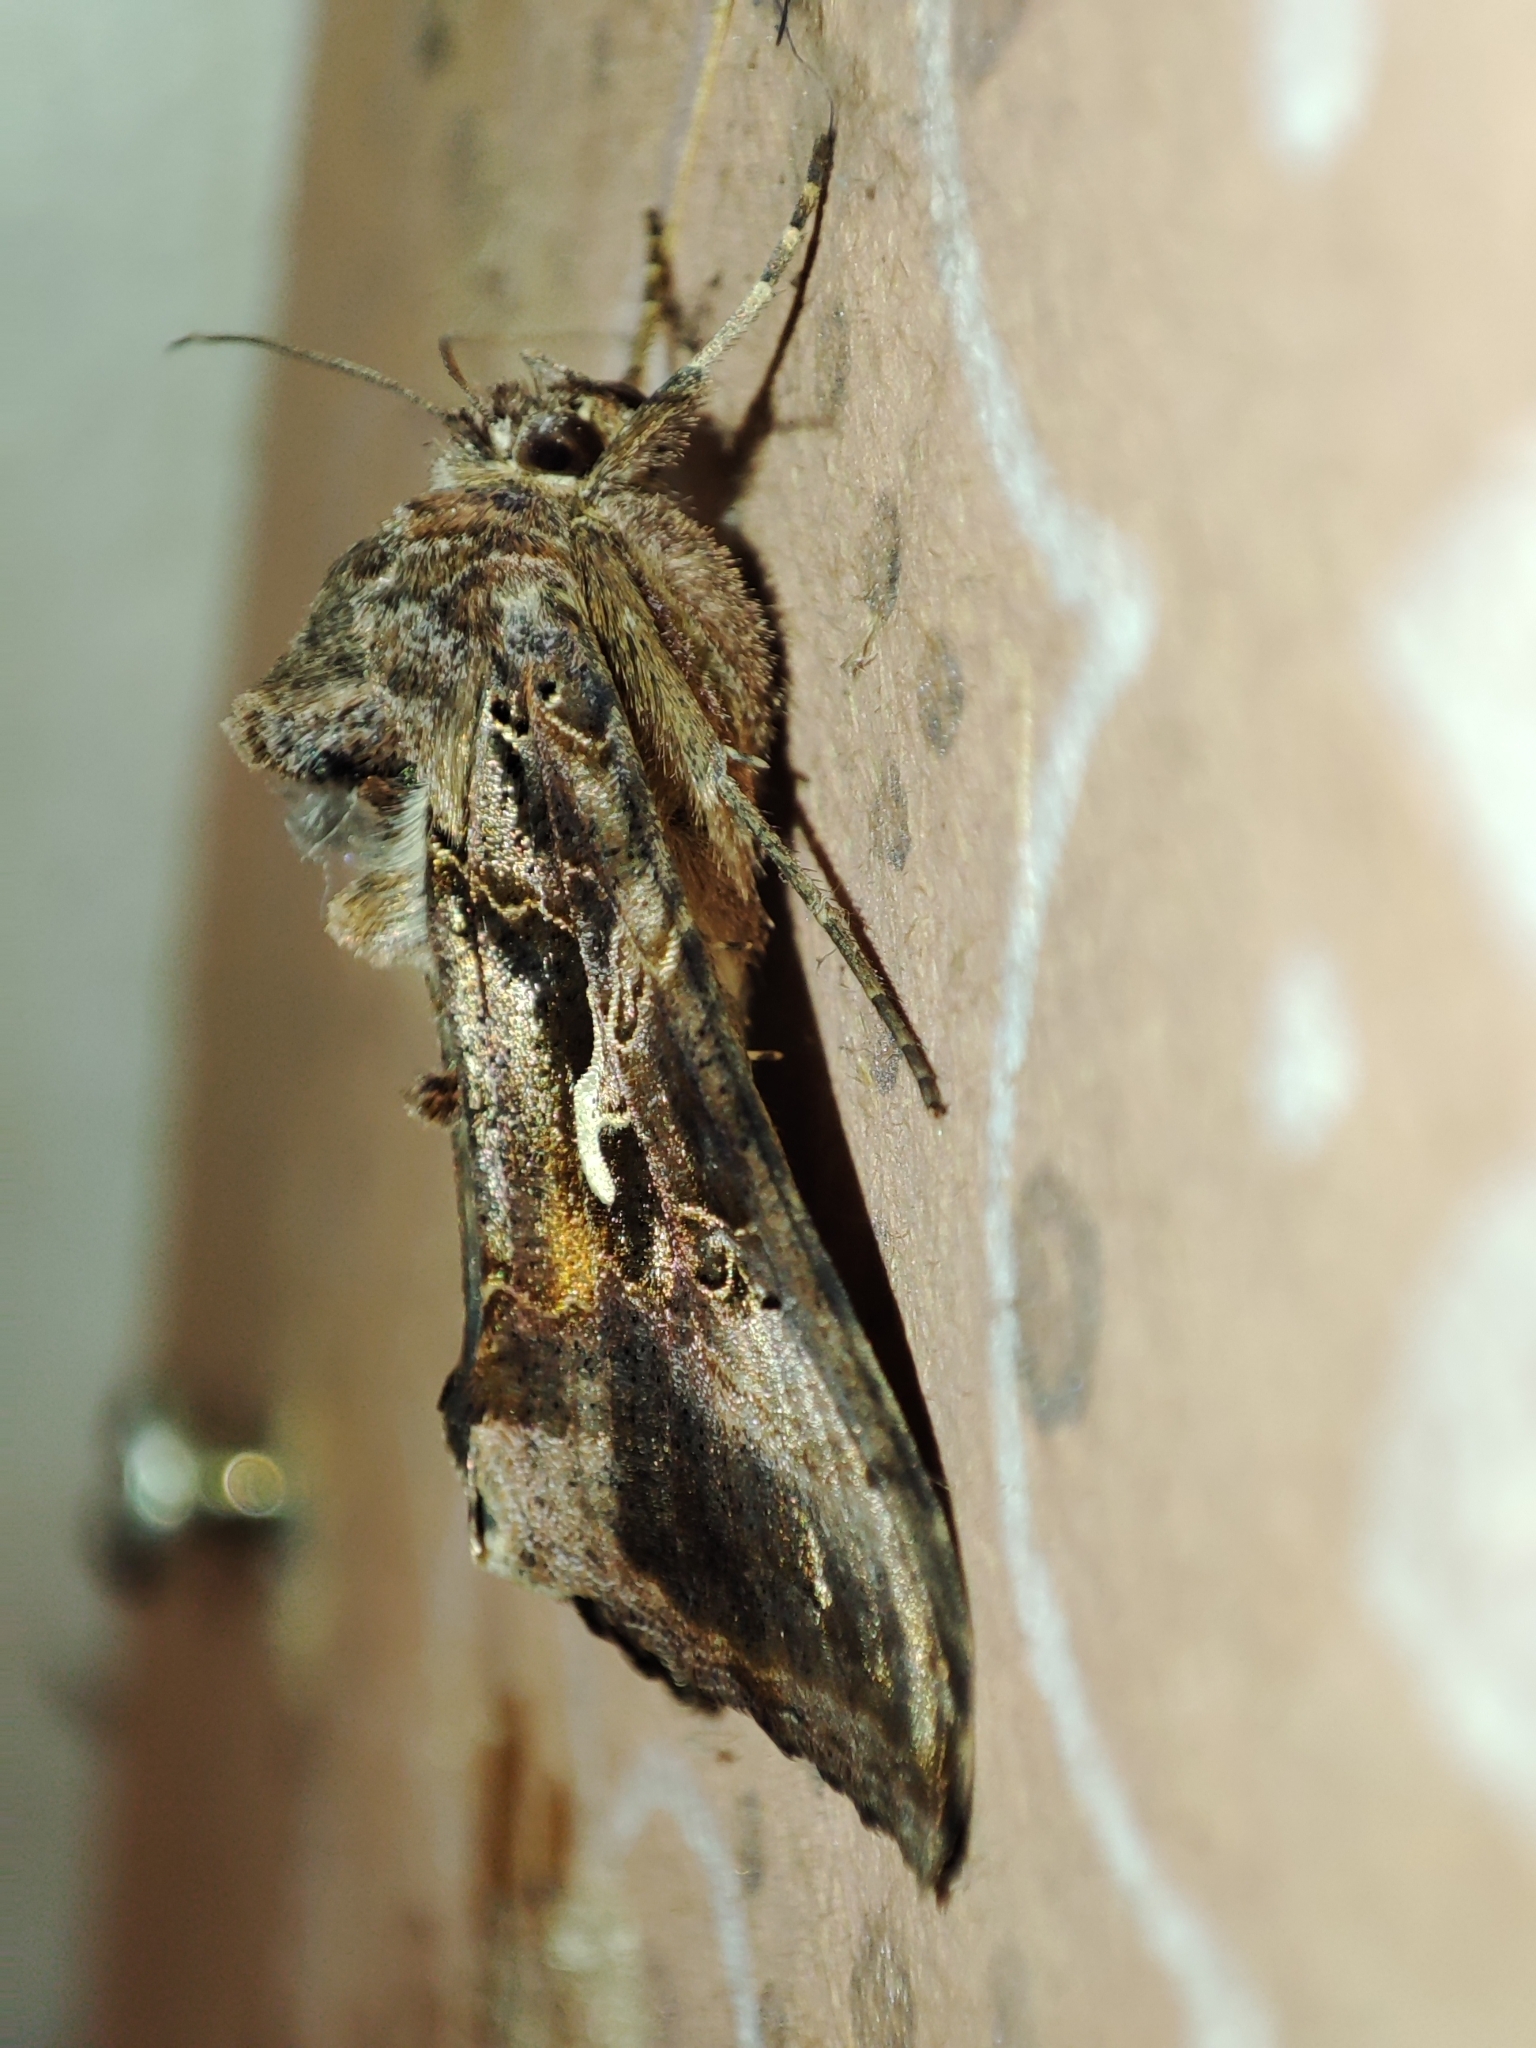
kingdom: Animalia
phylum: Arthropoda
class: Insecta
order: Lepidoptera
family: Noctuidae
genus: Autographa
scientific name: Autographa gamma
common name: Silver y
